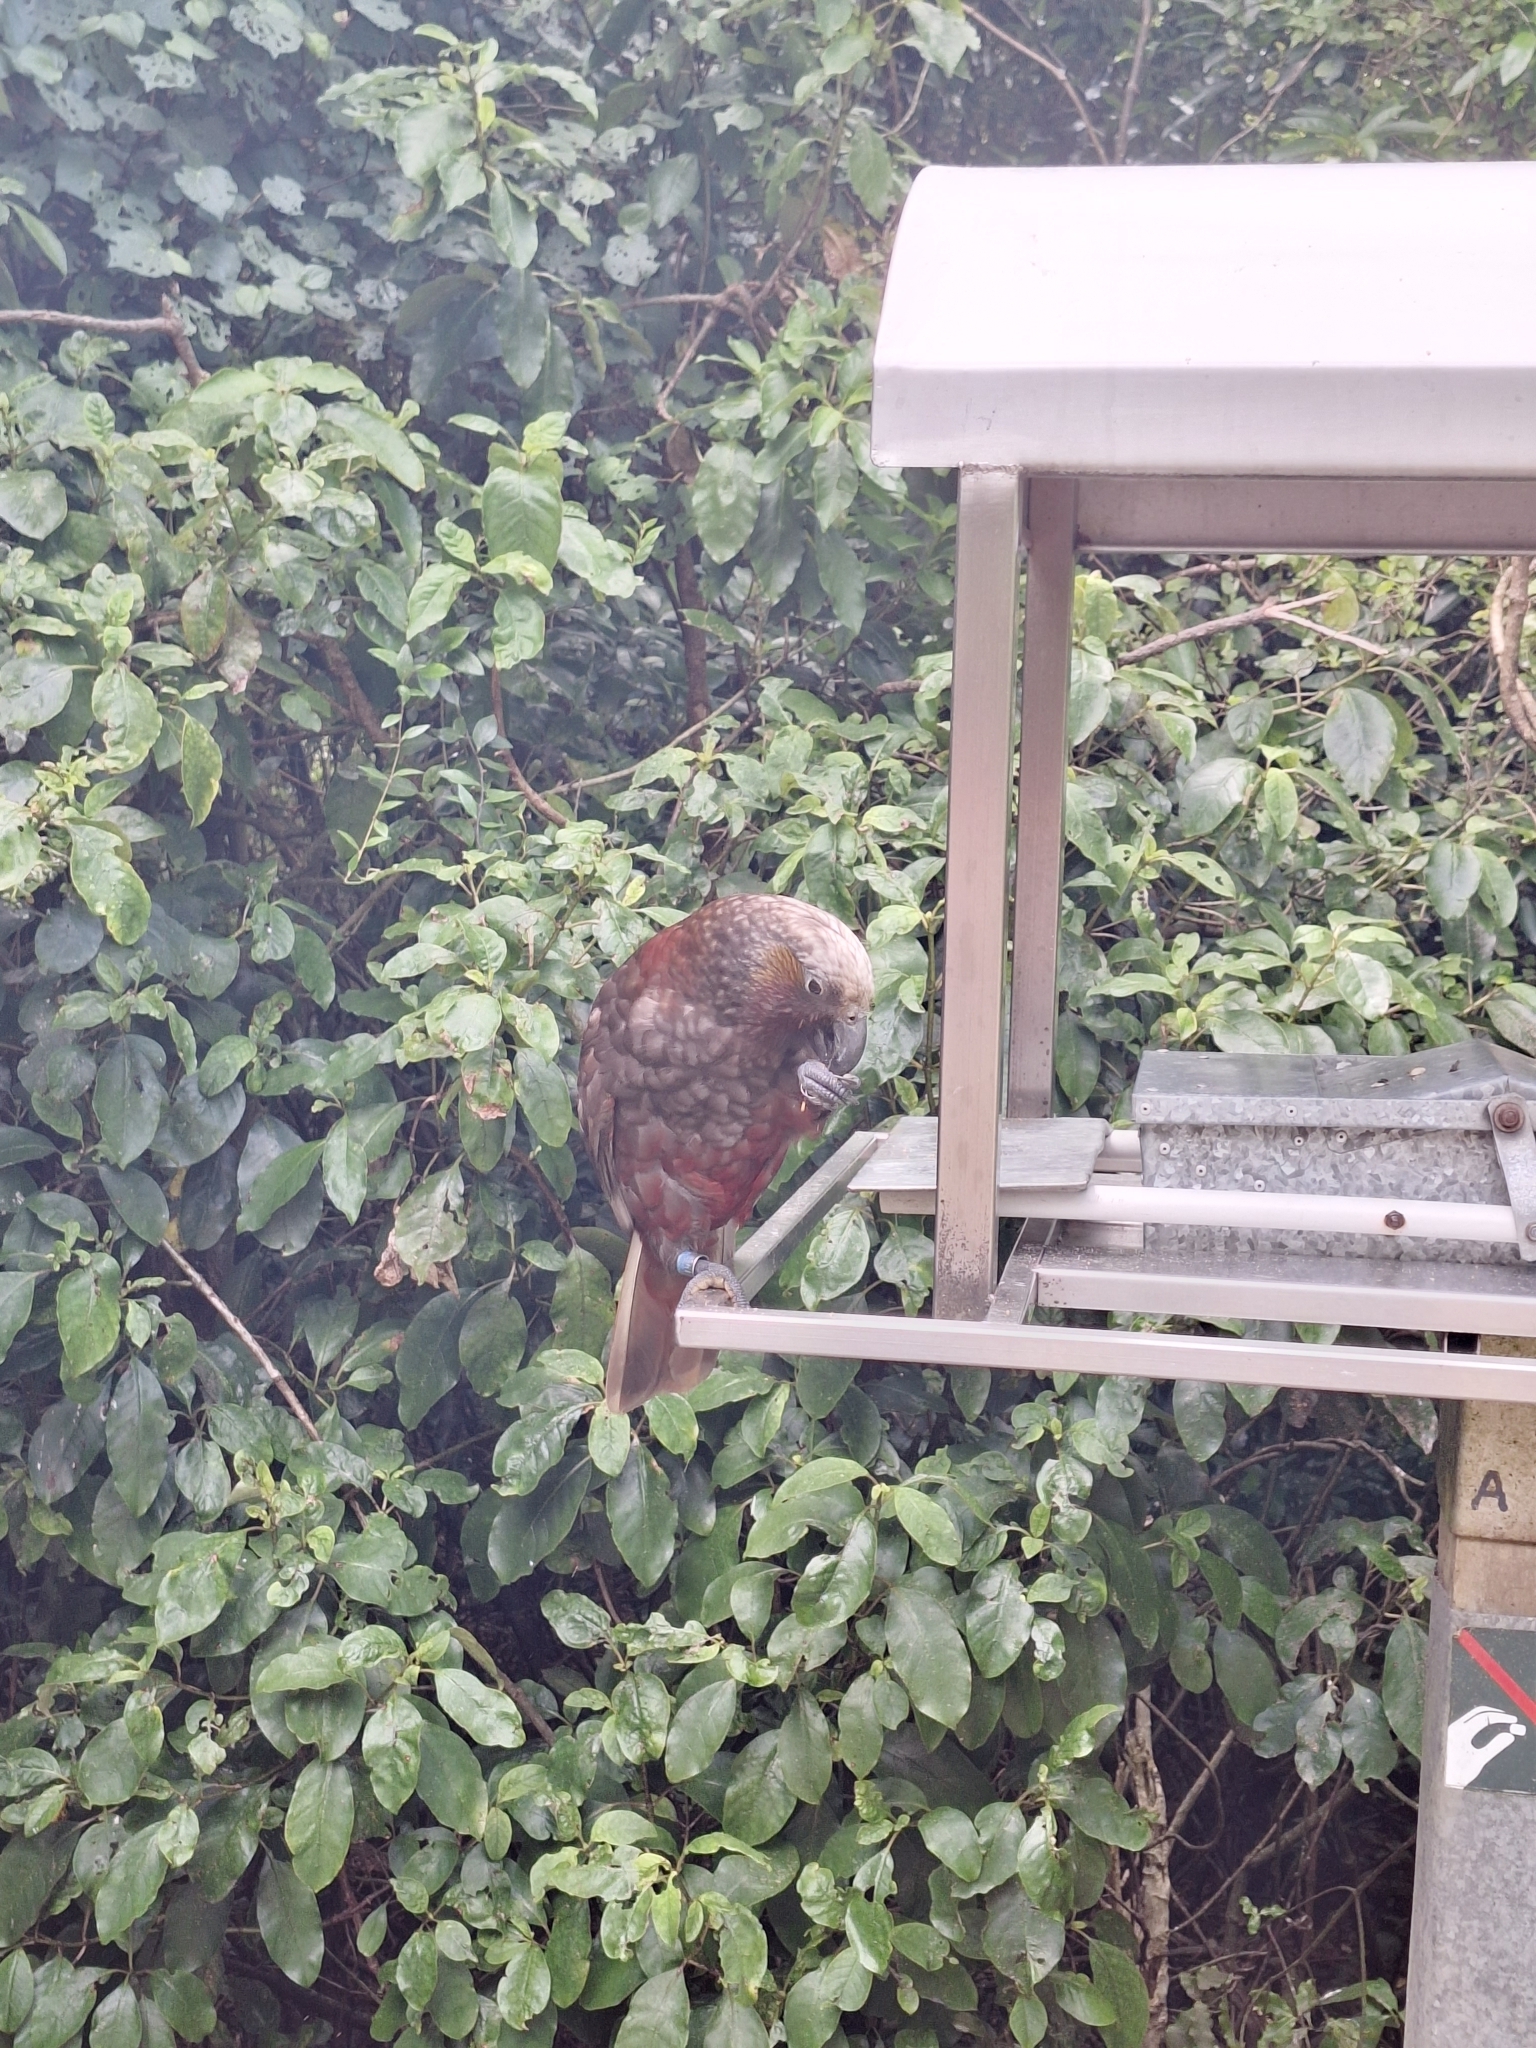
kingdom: Animalia
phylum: Chordata
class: Aves
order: Psittaciformes
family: Psittacidae
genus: Nestor
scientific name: Nestor meridionalis
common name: New zealand kaka
